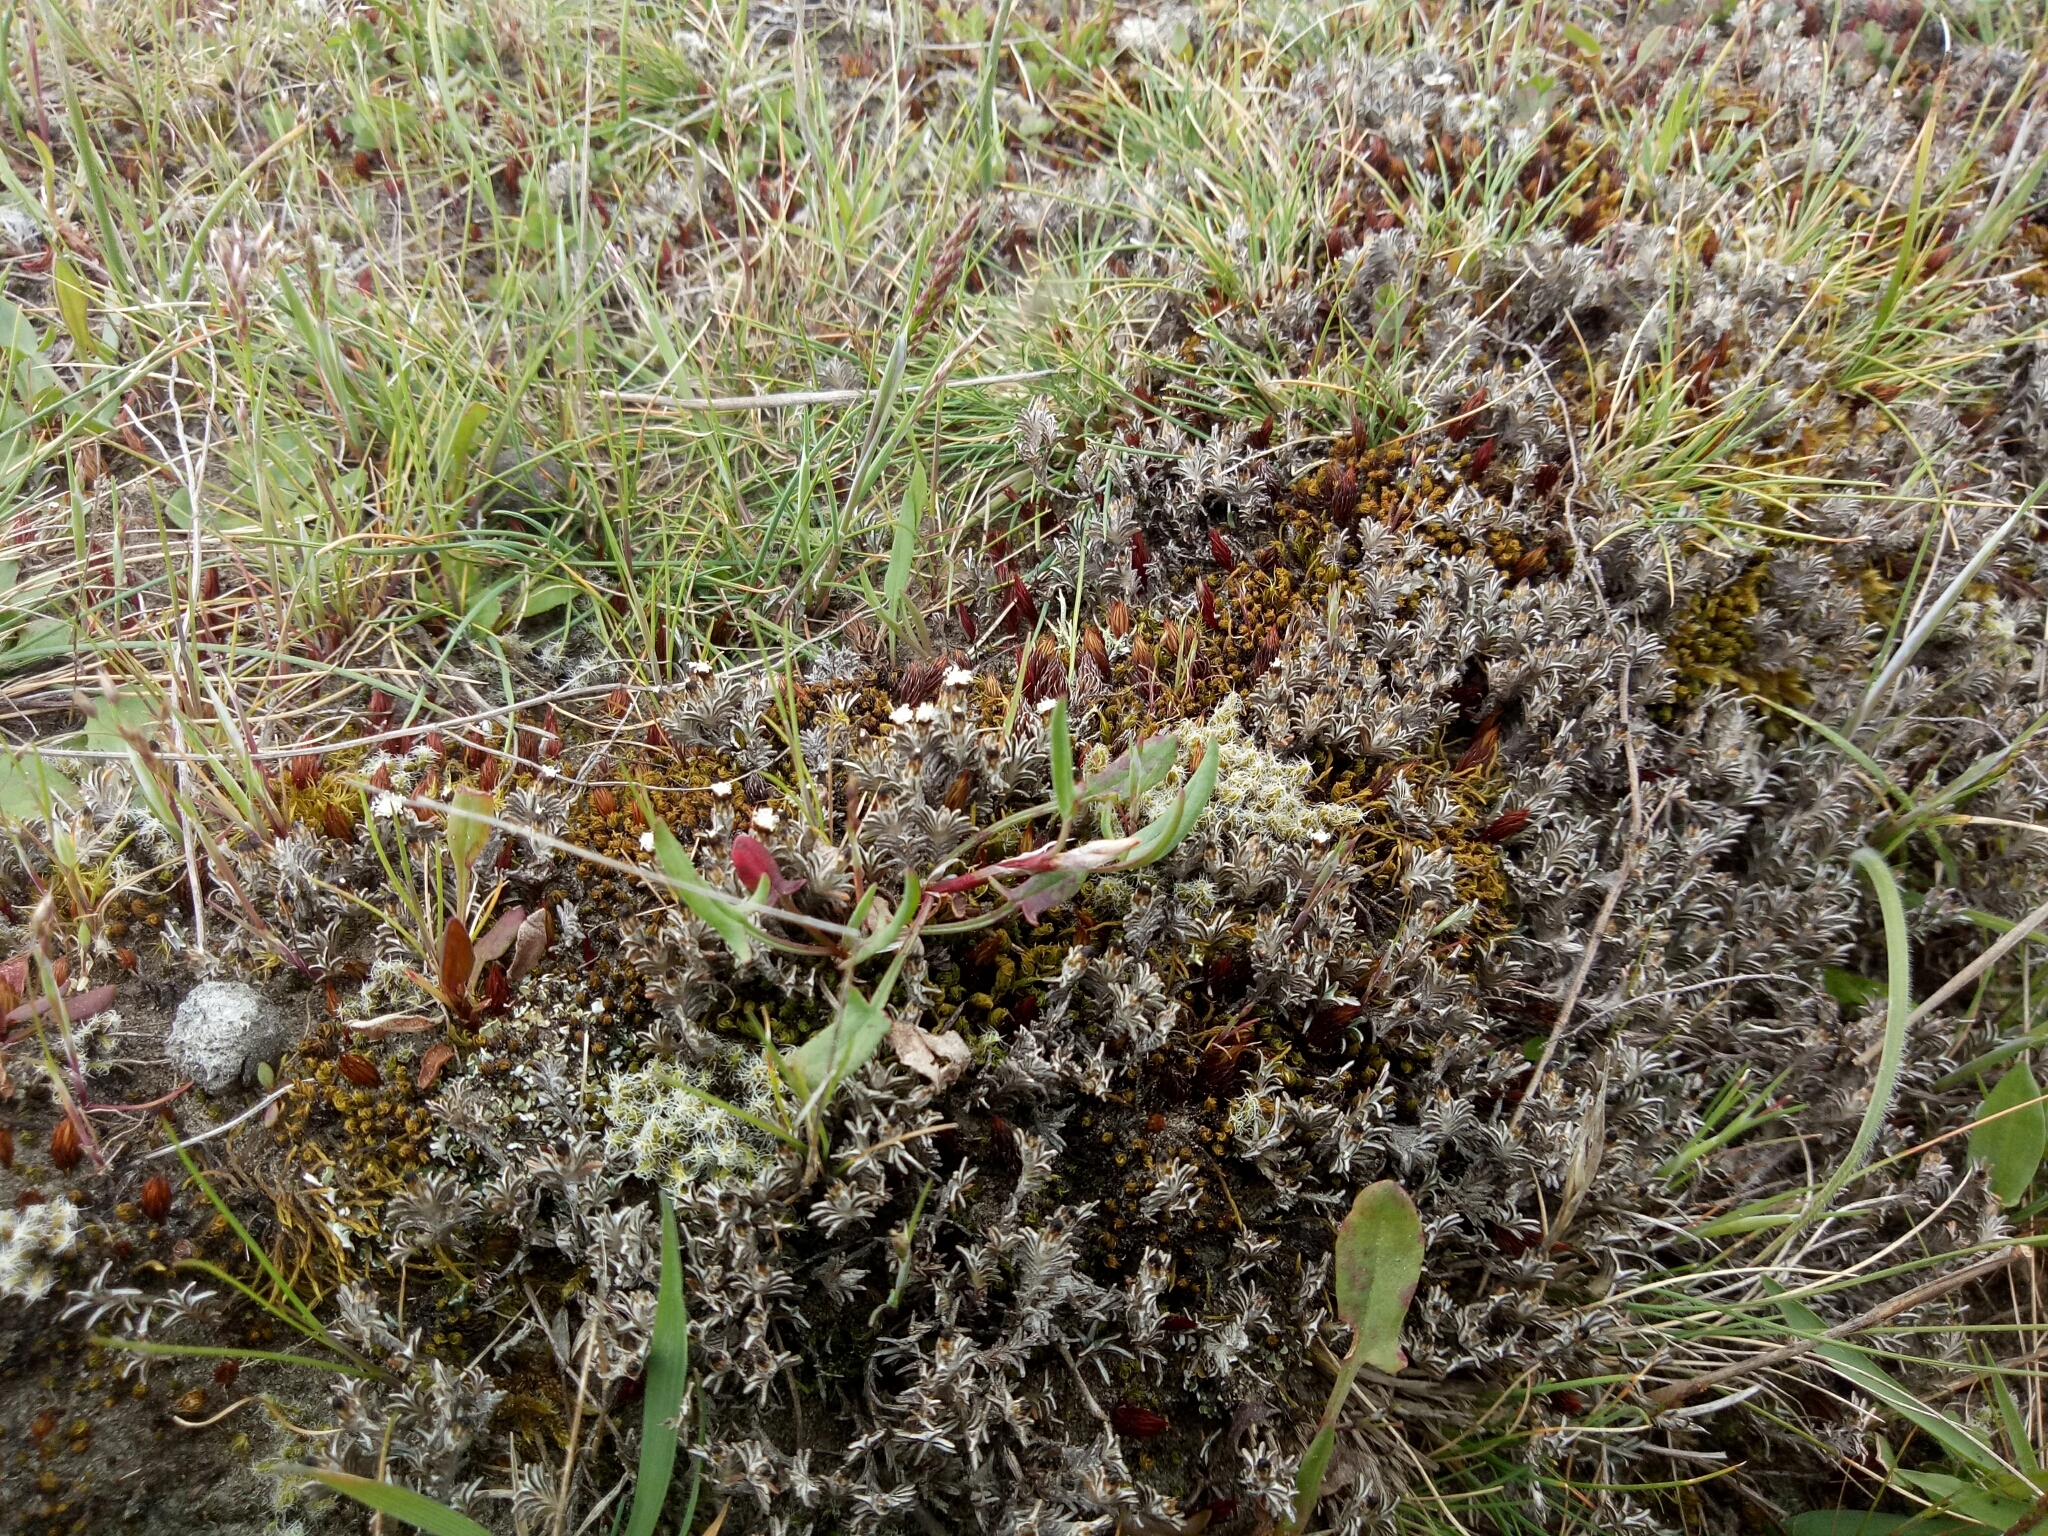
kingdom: Plantae
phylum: Tracheophyta
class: Magnoliopsida
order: Asterales
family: Asteraceae
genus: Raoulia
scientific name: Raoulia monroi
